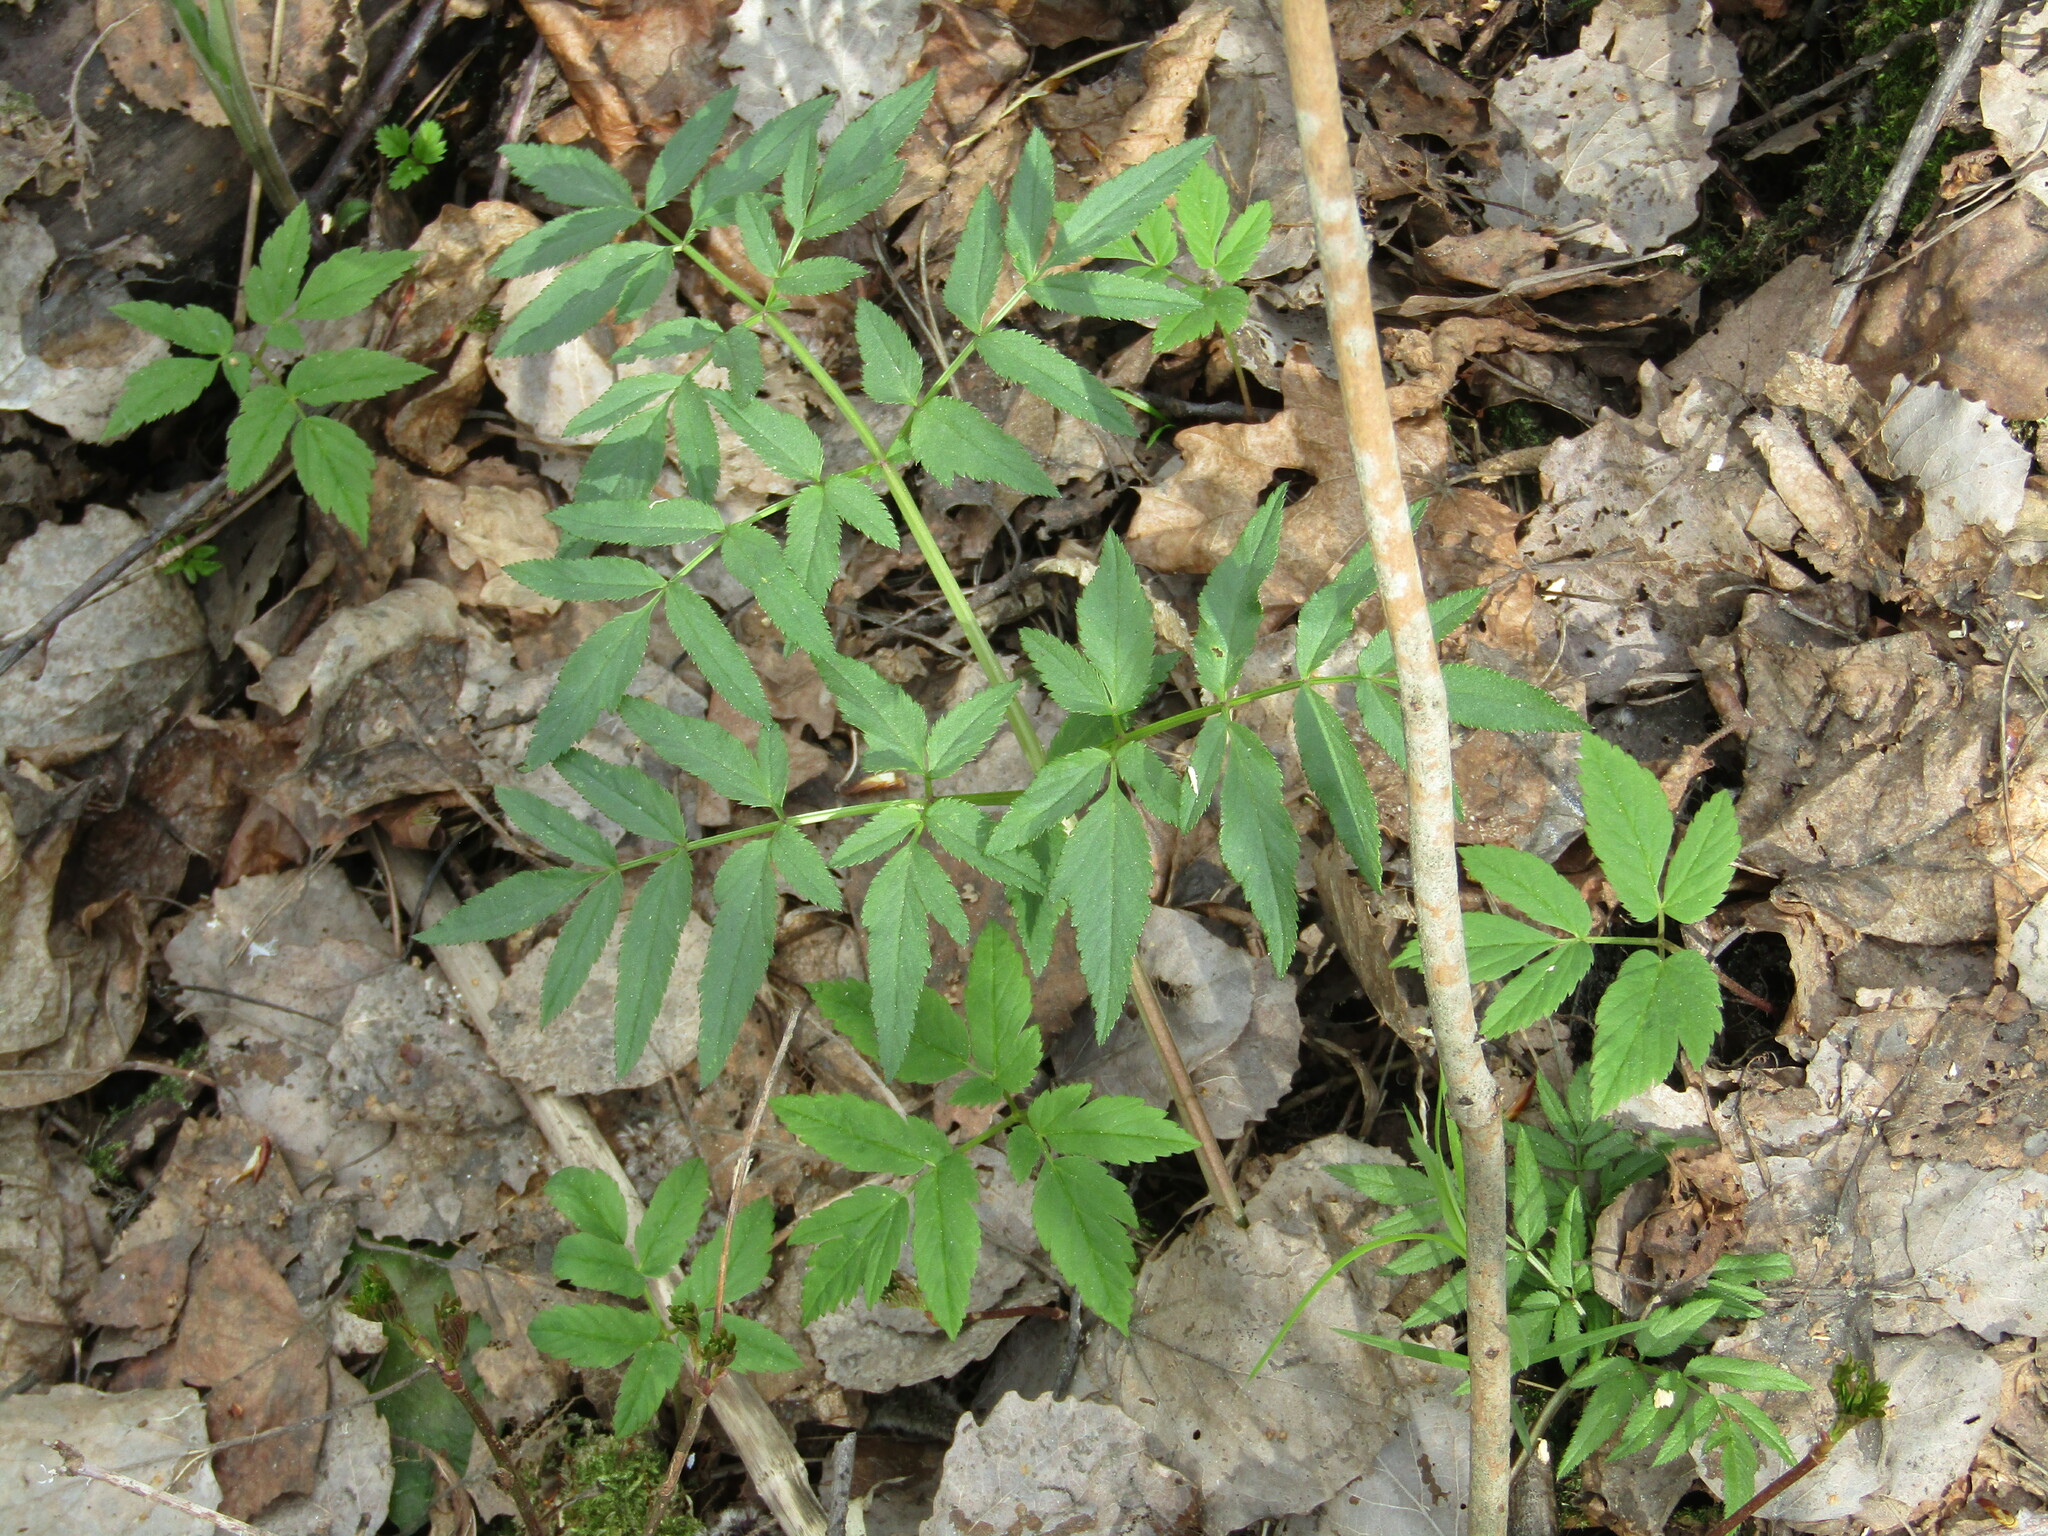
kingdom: Plantae
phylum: Tracheophyta
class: Magnoliopsida
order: Apiales
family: Apiaceae
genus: Angelica
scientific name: Angelica sylvestris
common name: Wild angelica
